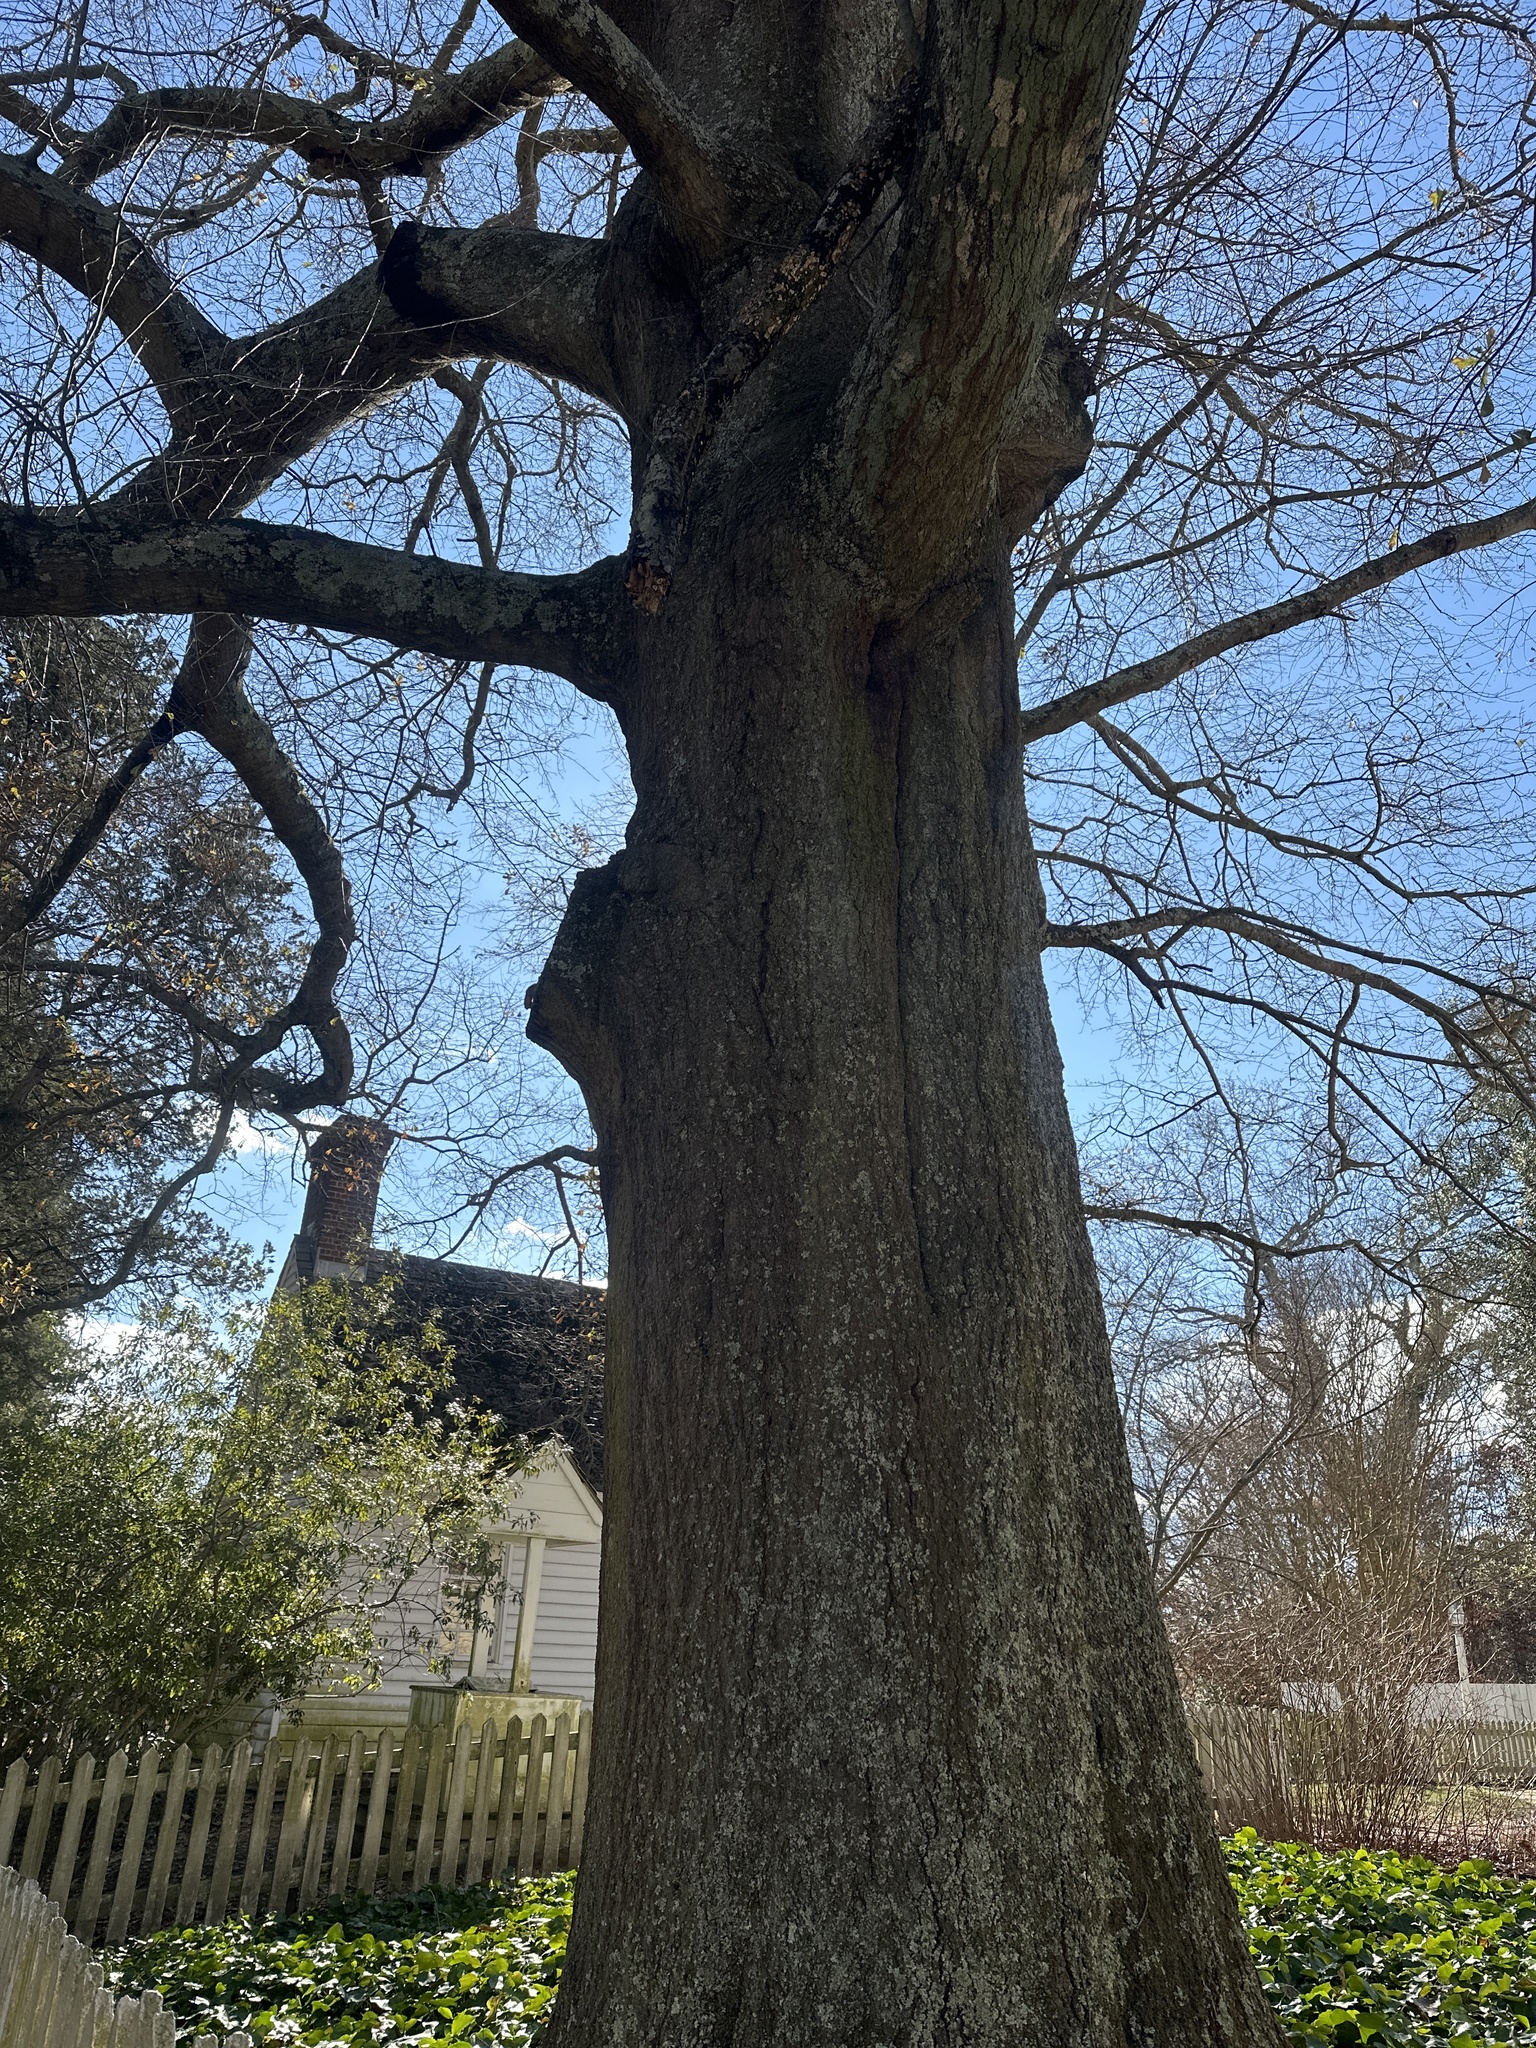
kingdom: Plantae
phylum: Tracheophyta
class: Magnoliopsida
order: Fagales
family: Fagaceae
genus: Quercus
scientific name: Quercus nigra
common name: Water oak
